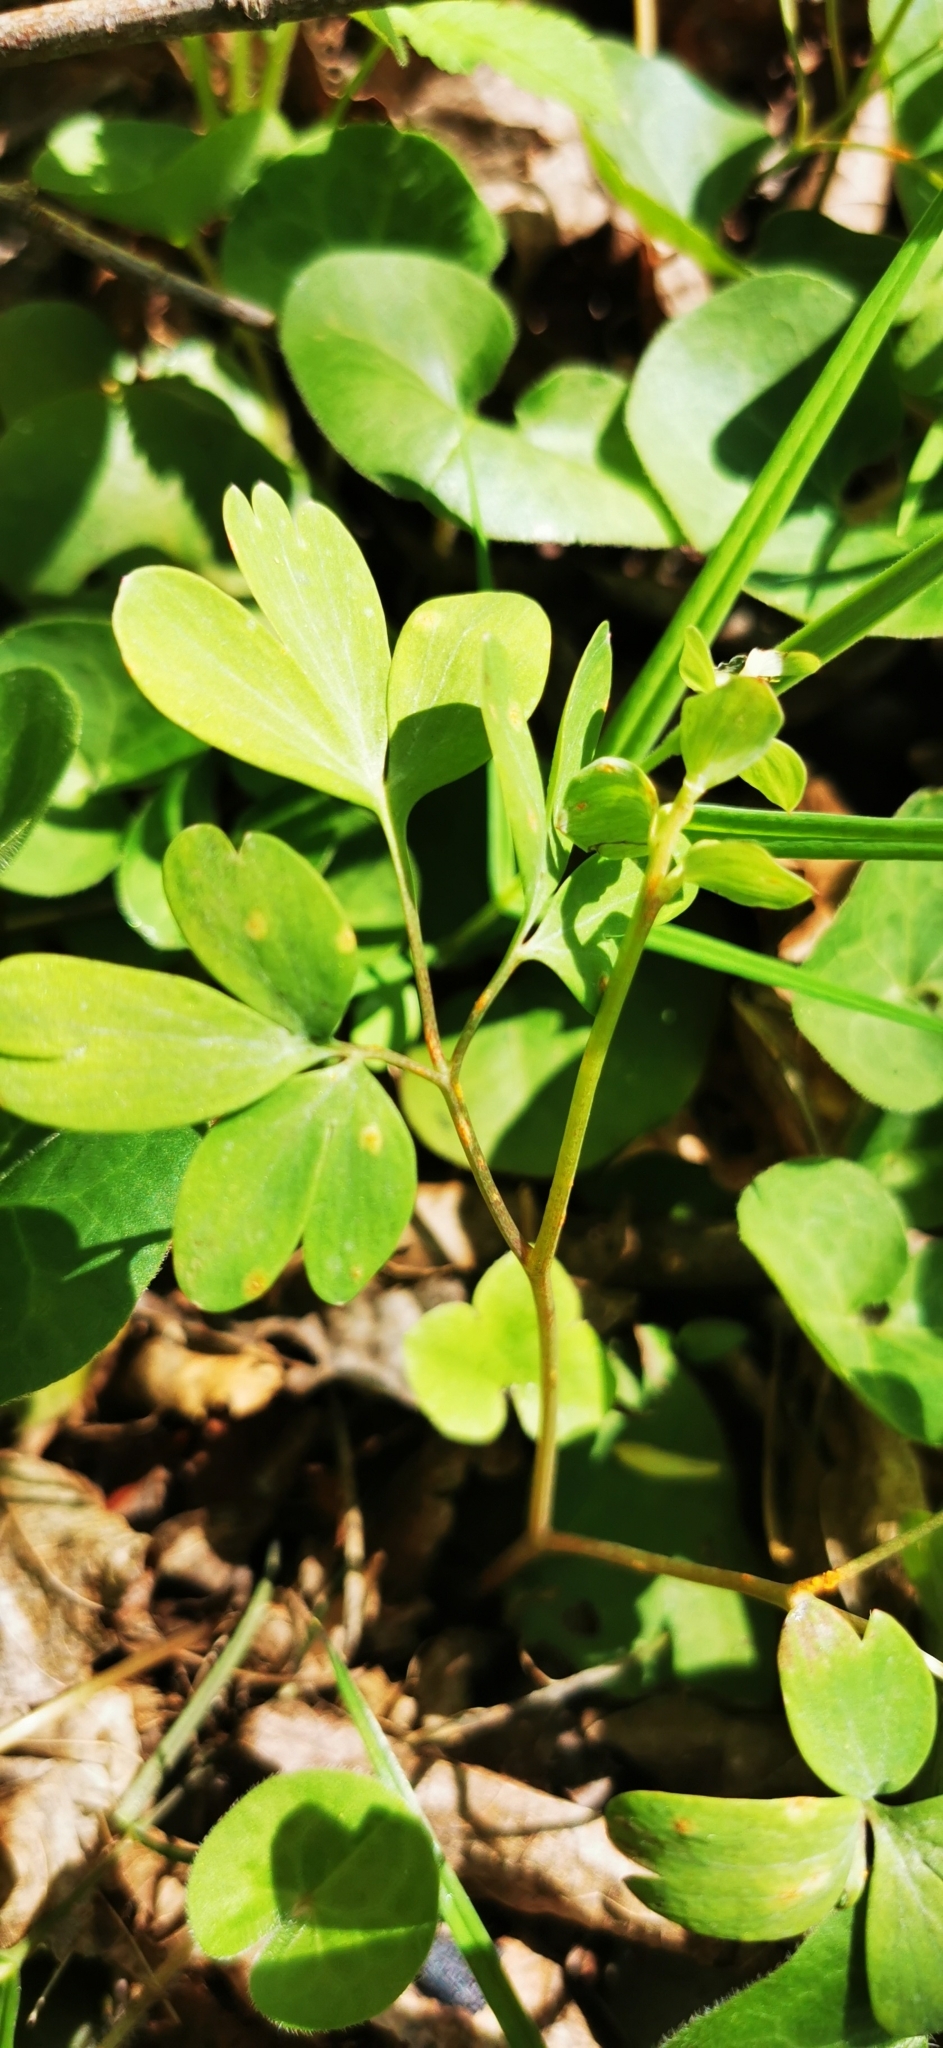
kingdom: Chromista
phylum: Oomycota
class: Peronosporea
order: Peronosporales
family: Peronosporaceae
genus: Peronospora
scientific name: Peronospora corydalis-intermediae
